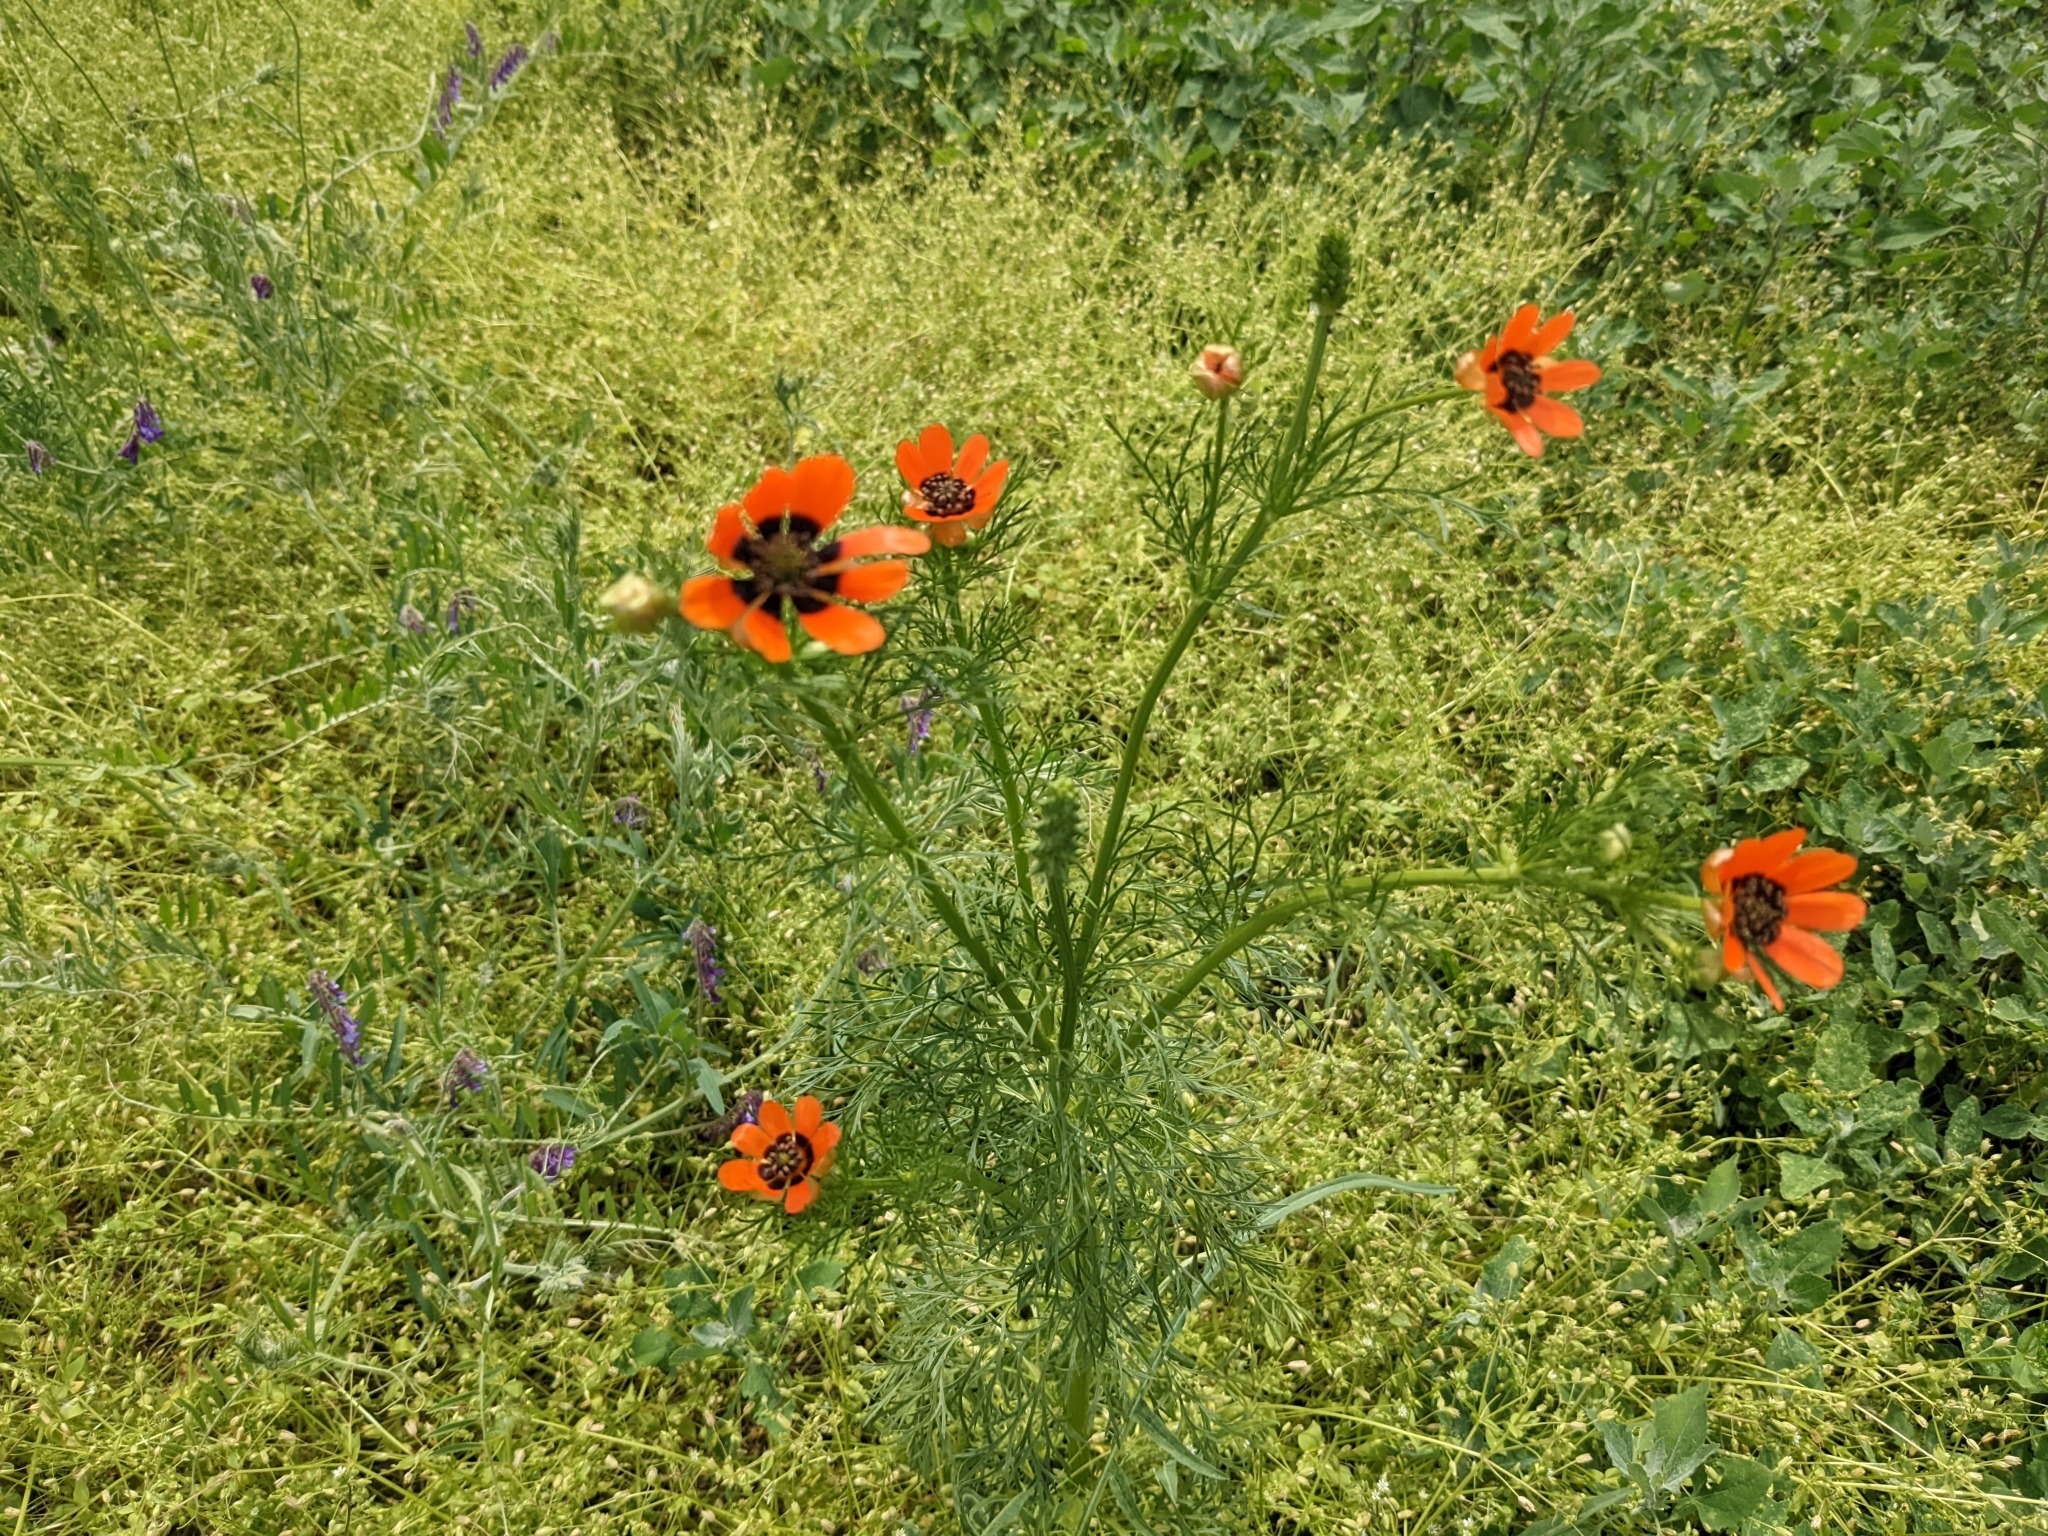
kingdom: Plantae
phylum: Tracheophyta
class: Magnoliopsida
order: Ranunculales
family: Ranunculaceae
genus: Adonis
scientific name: Adonis aestivalis
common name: Summer pheasant's-eye
